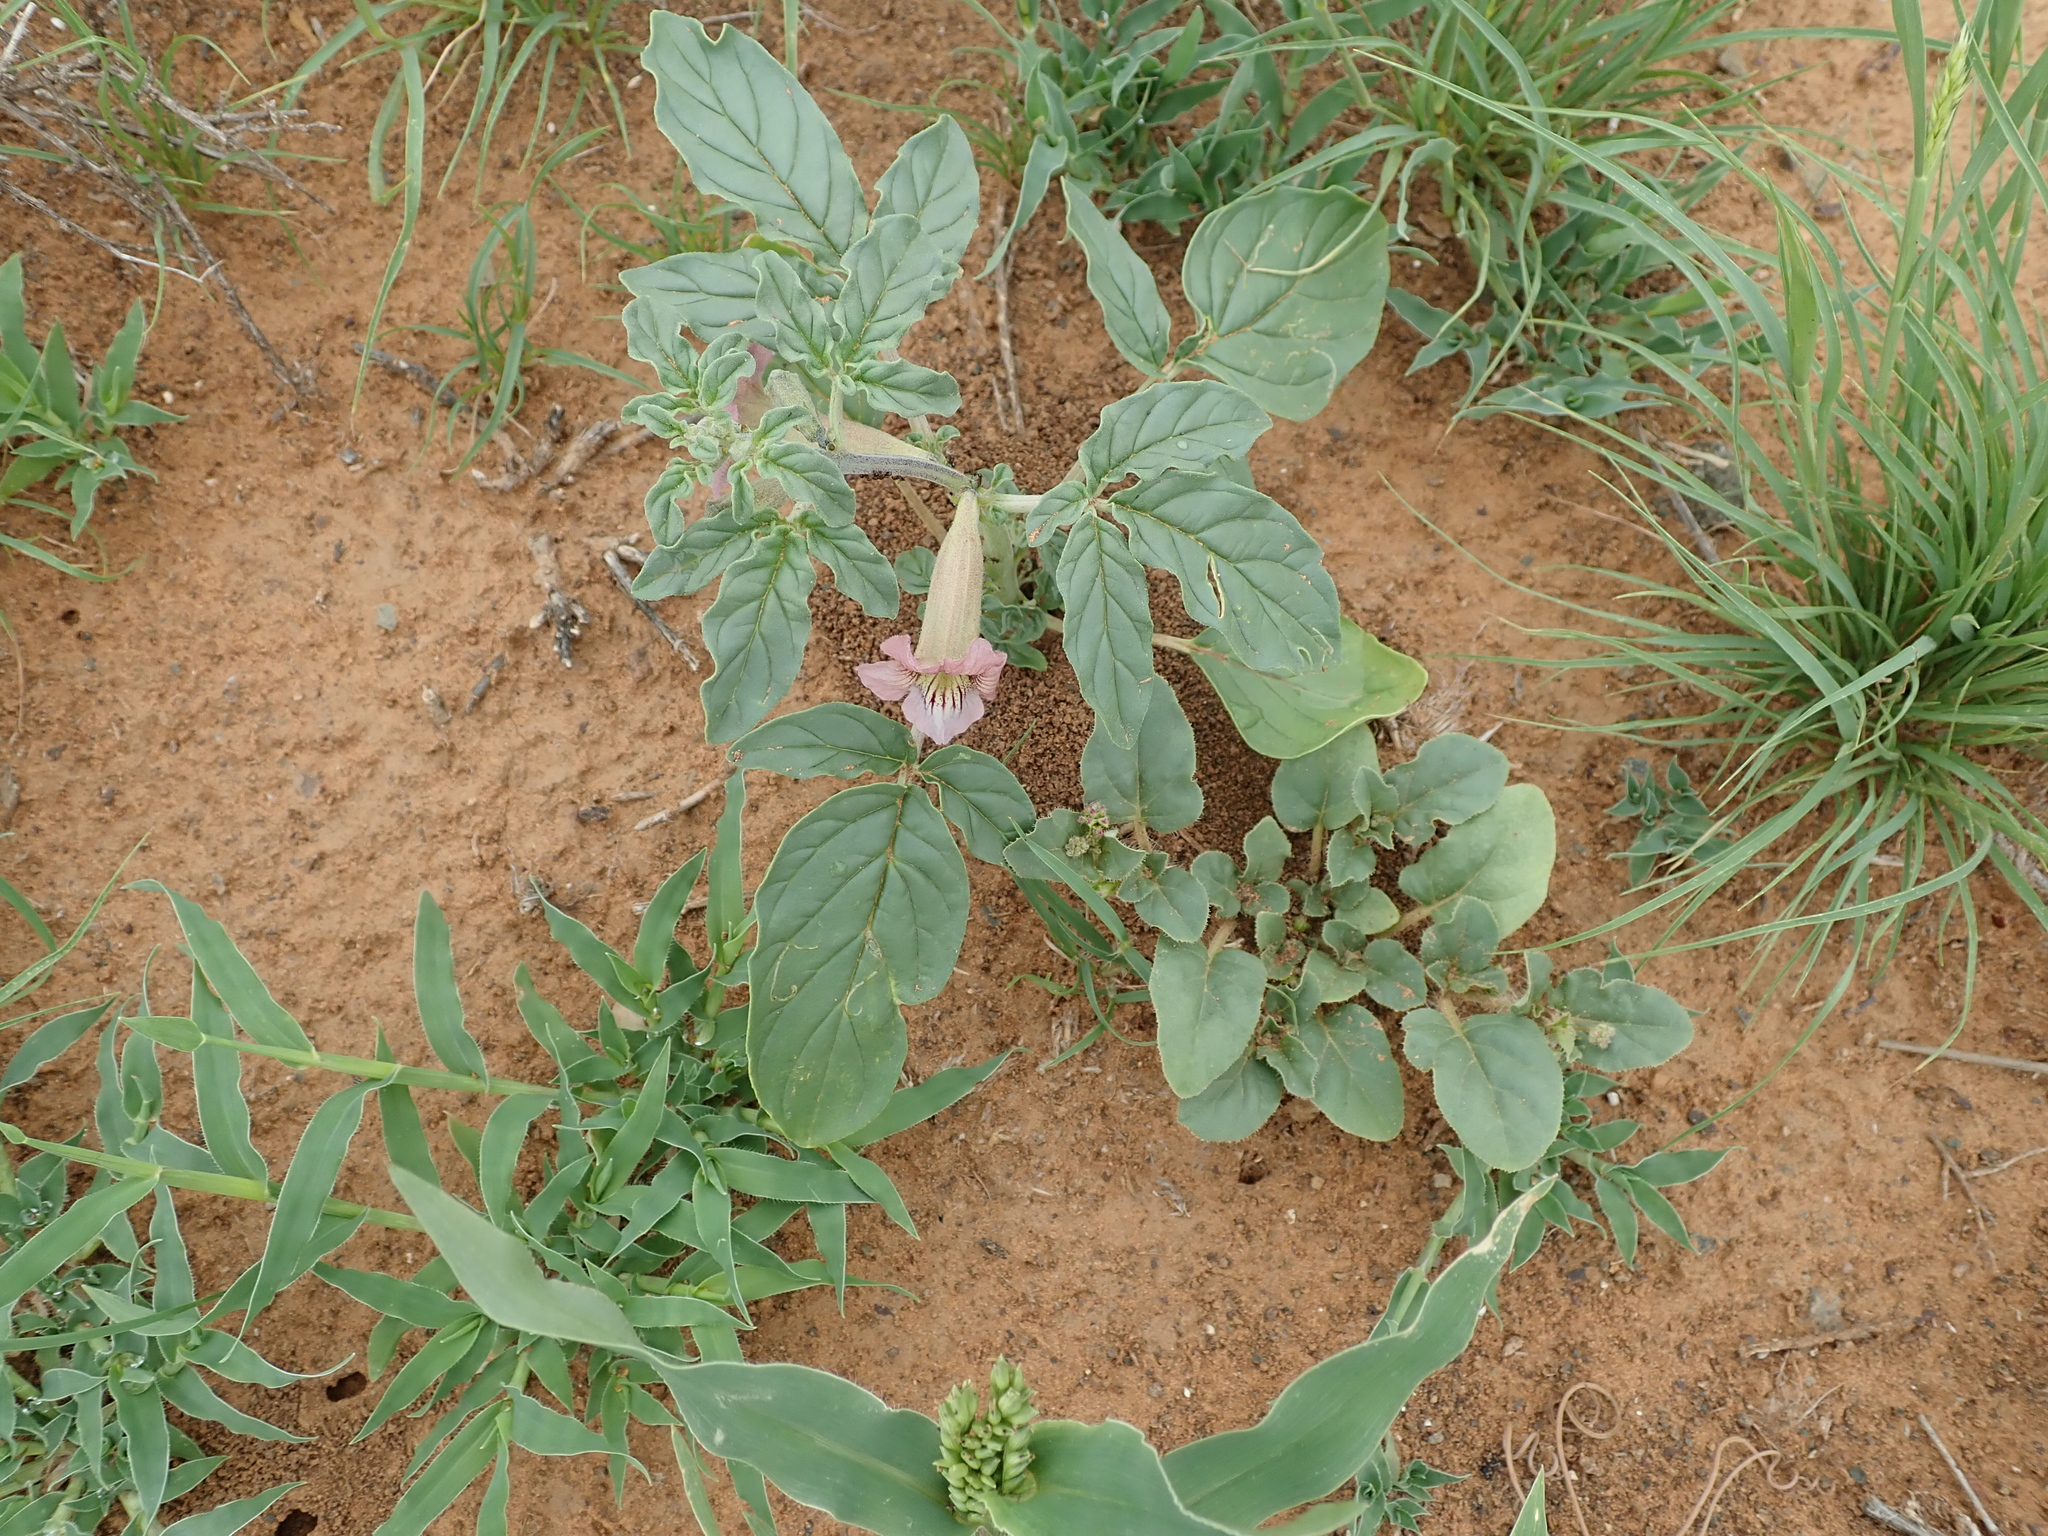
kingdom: Plantae
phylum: Tracheophyta
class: Magnoliopsida
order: Lamiales
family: Pedaliaceae
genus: Sesamum
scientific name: Sesamum capense
